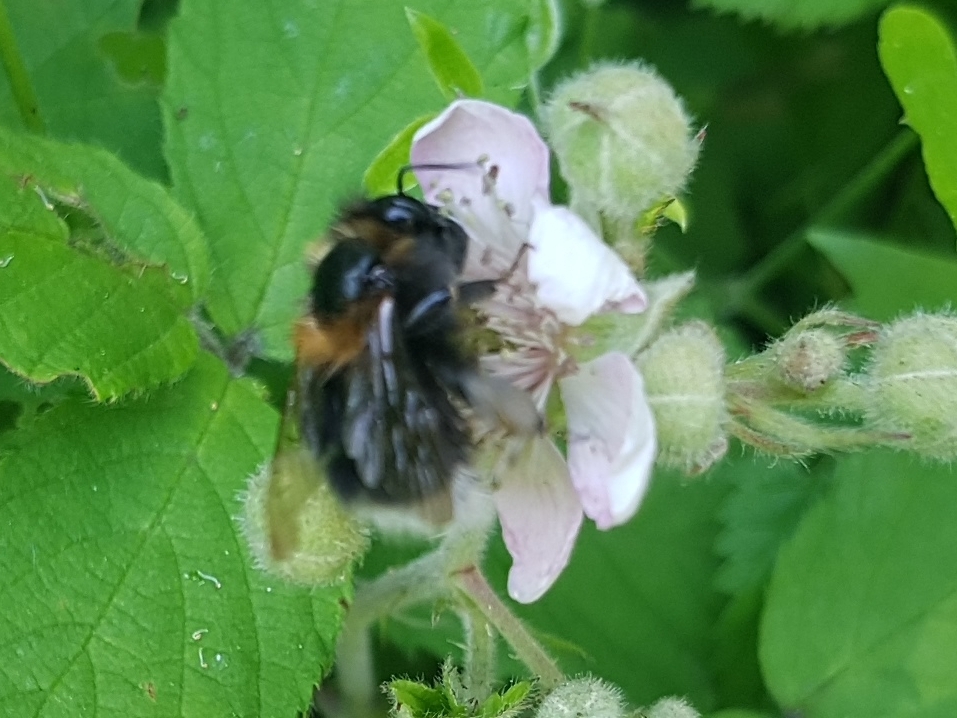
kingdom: Animalia
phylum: Arthropoda
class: Insecta
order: Hymenoptera
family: Apidae
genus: Bombus
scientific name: Bombus hypnorum
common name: New garden bumblebee
